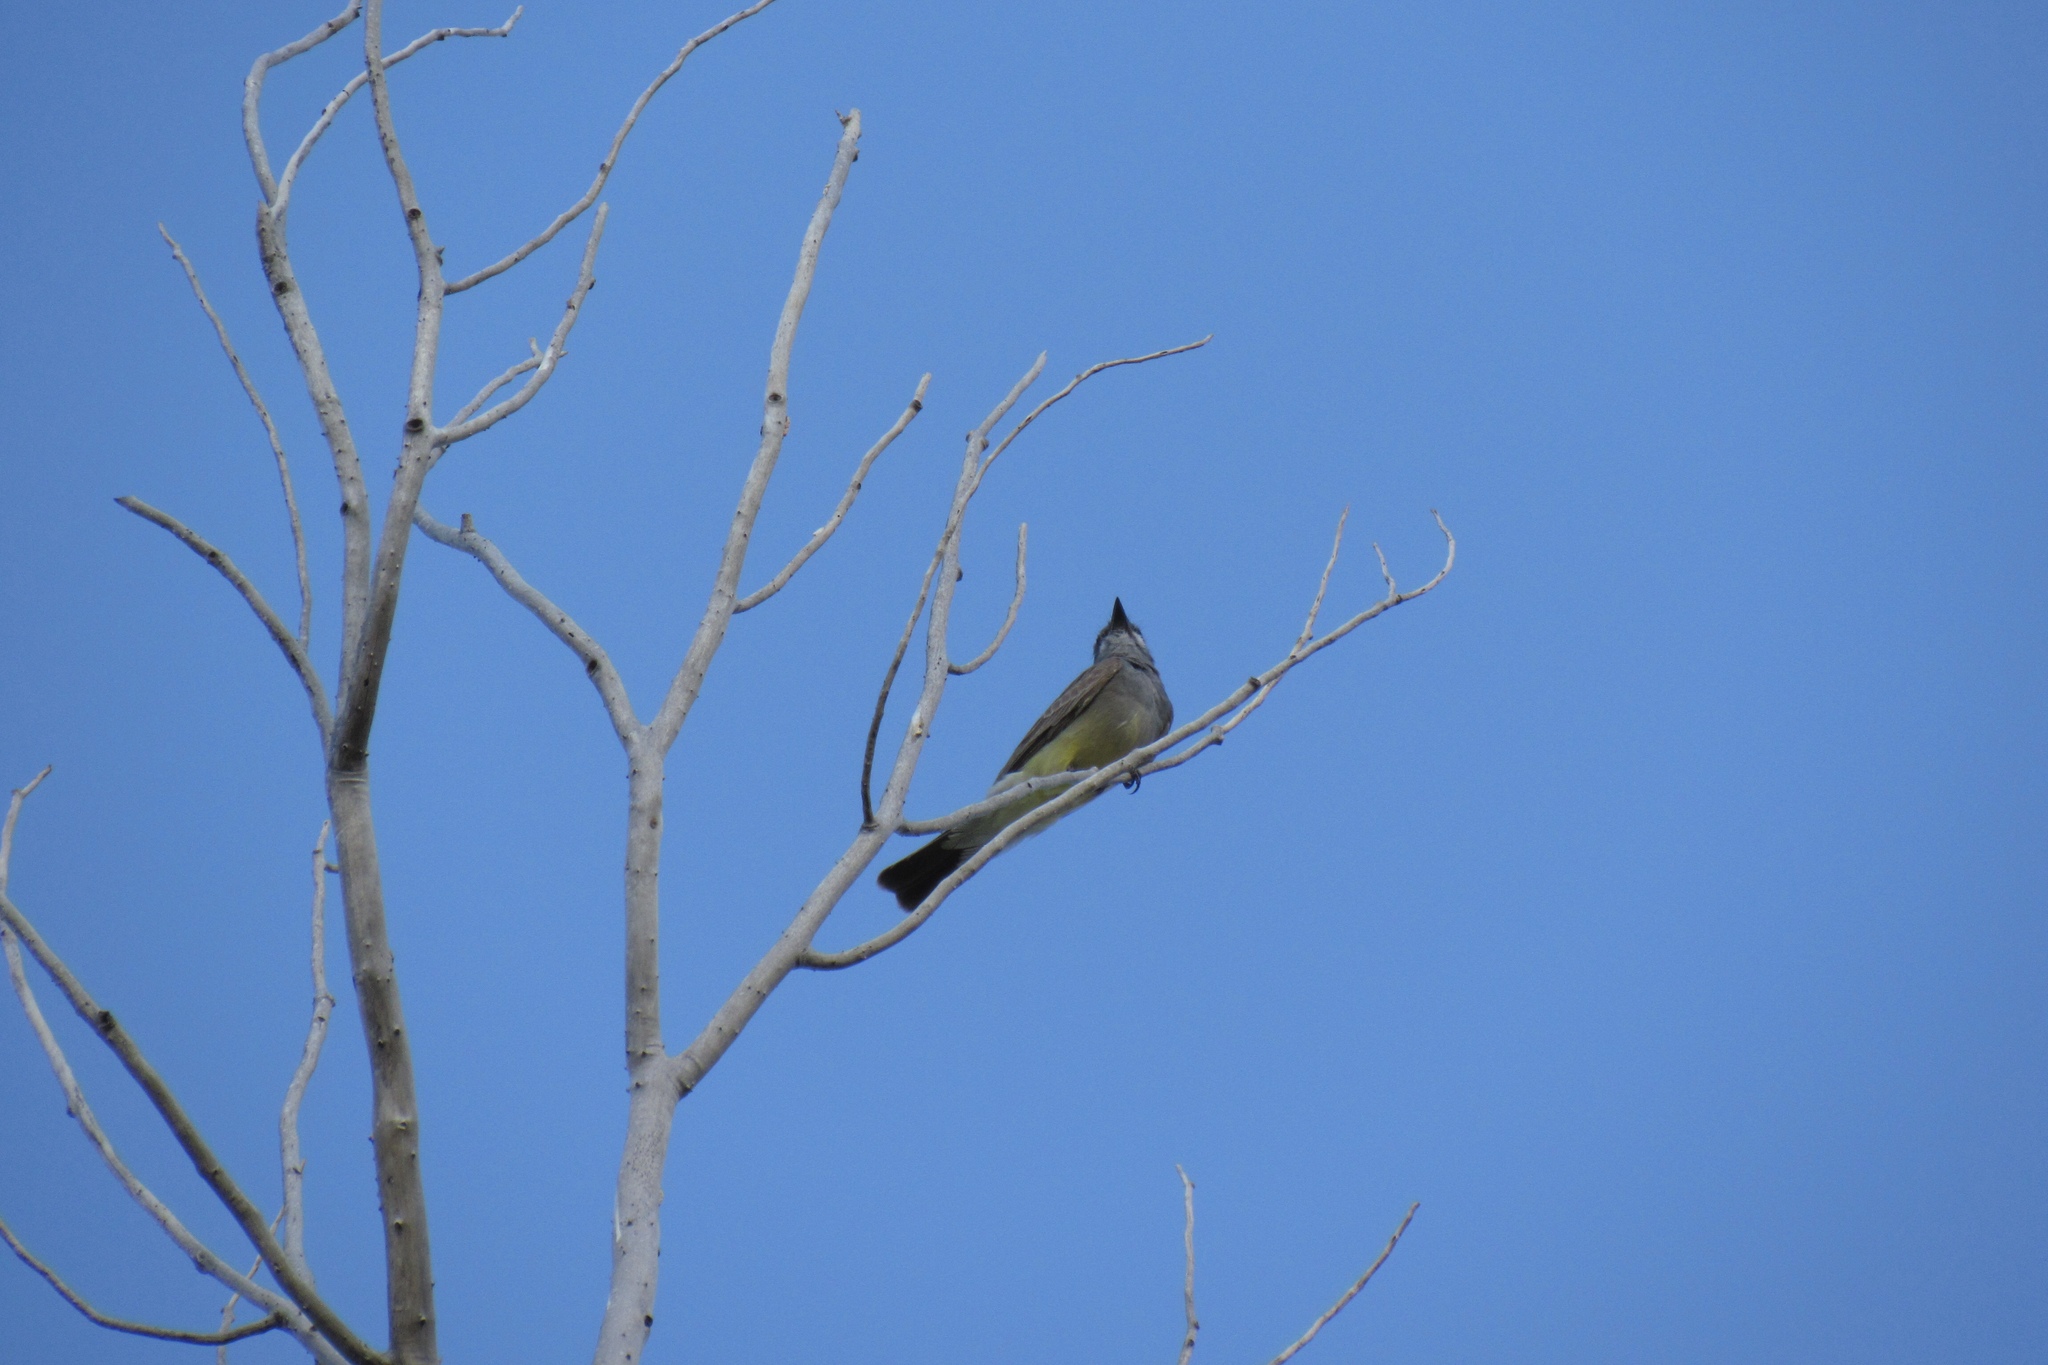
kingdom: Animalia
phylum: Chordata
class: Aves
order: Passeriformes
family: Tyrannidae
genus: Tyrannus
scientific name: Tyrannus vociferans
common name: Cassin's kingbird
